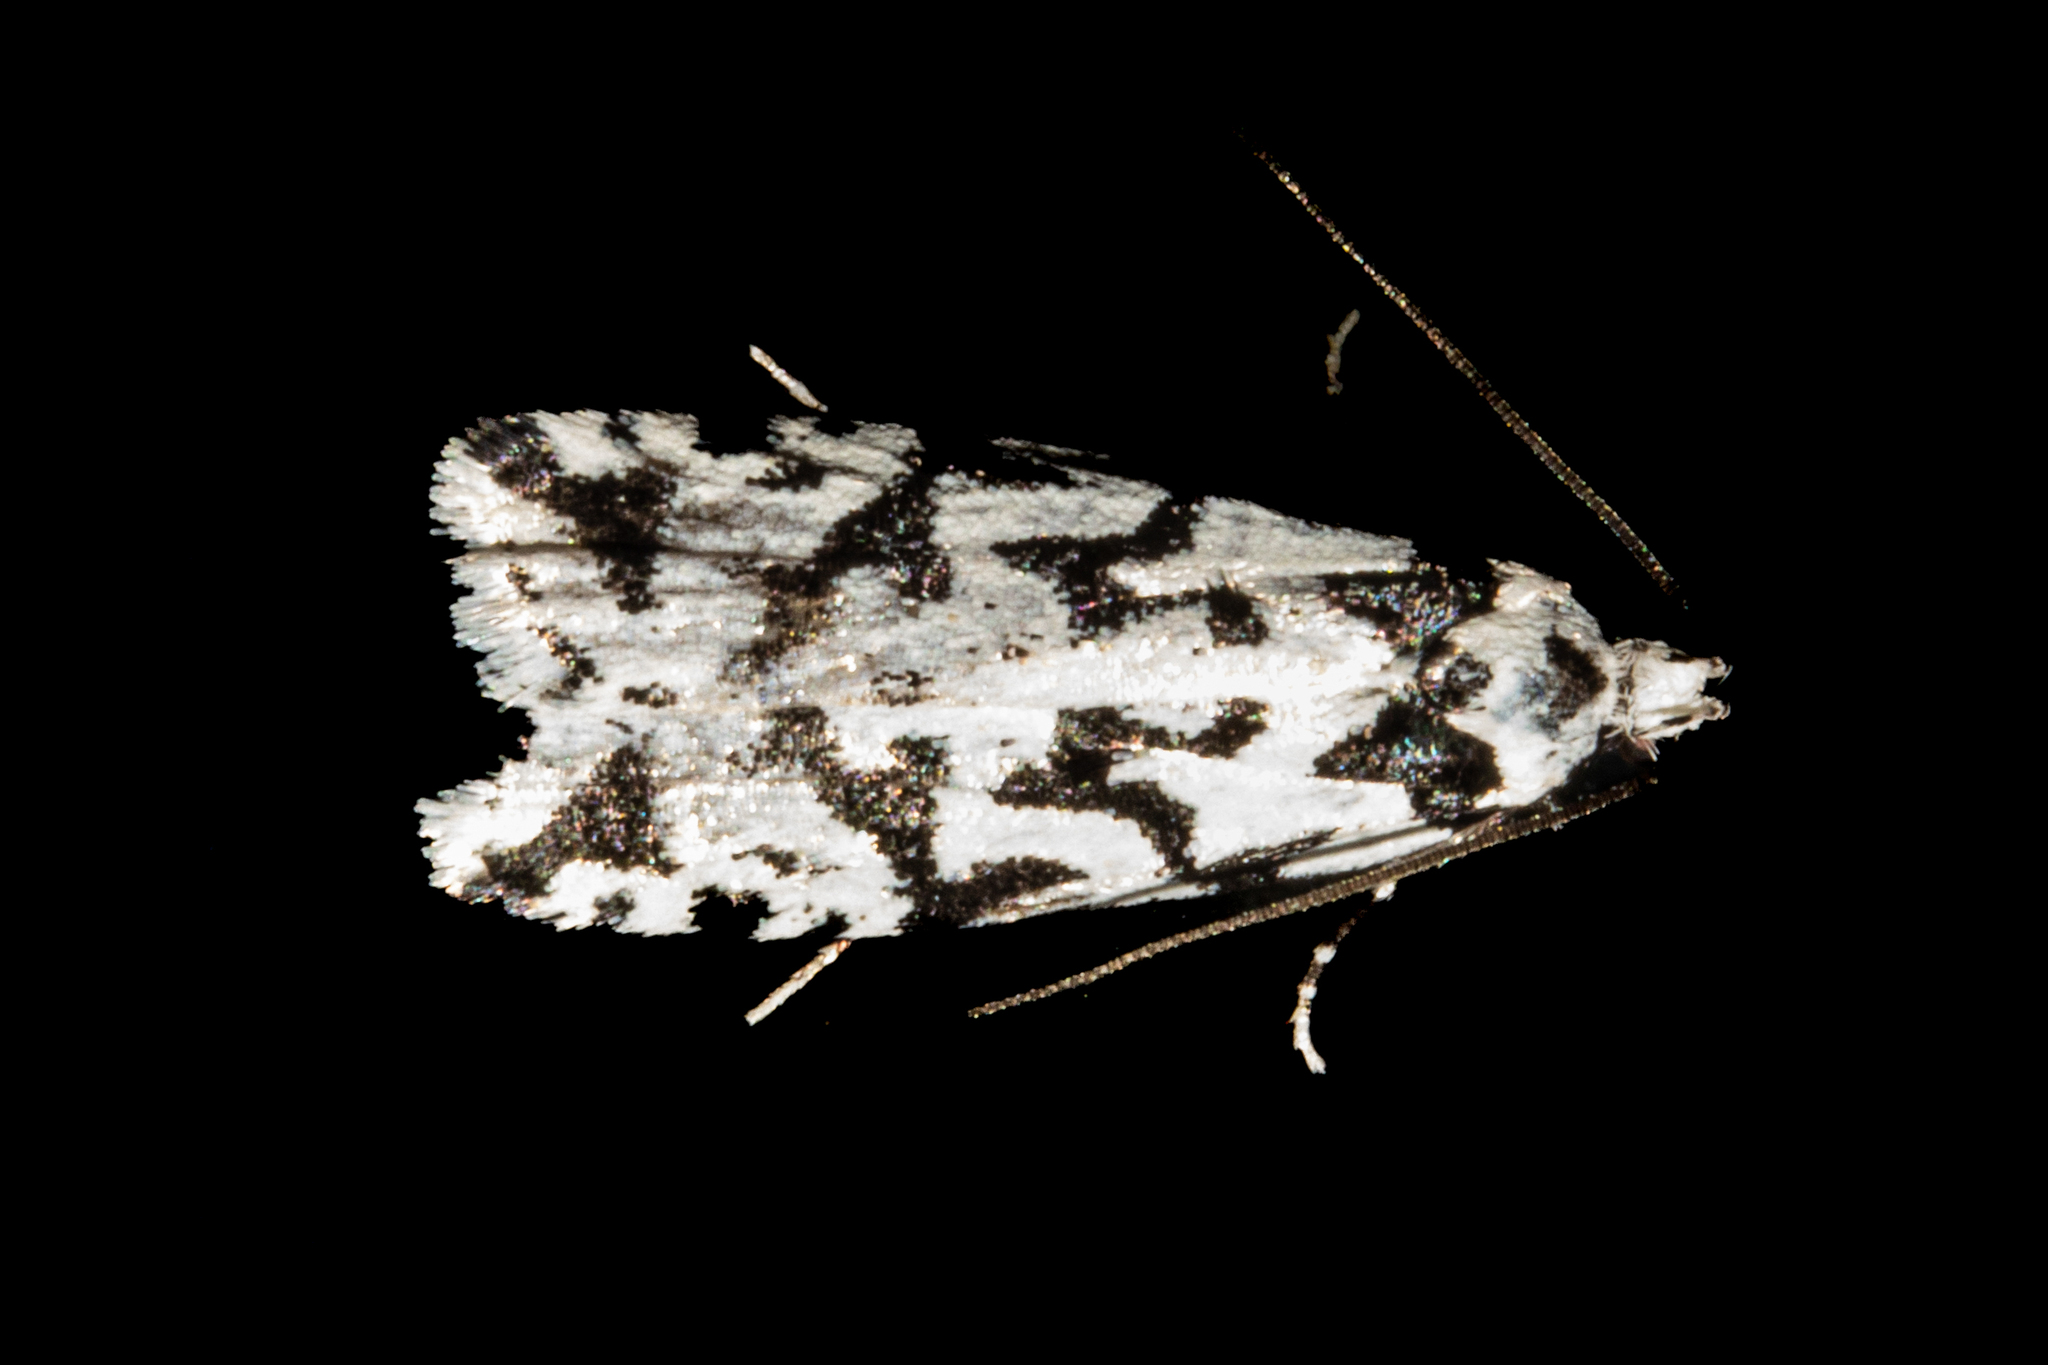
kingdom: Animalia
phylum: Arthropoda
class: Insecta
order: Lepidoptera
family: Oecophoridae
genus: Izatha
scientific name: Izatha acmonias
